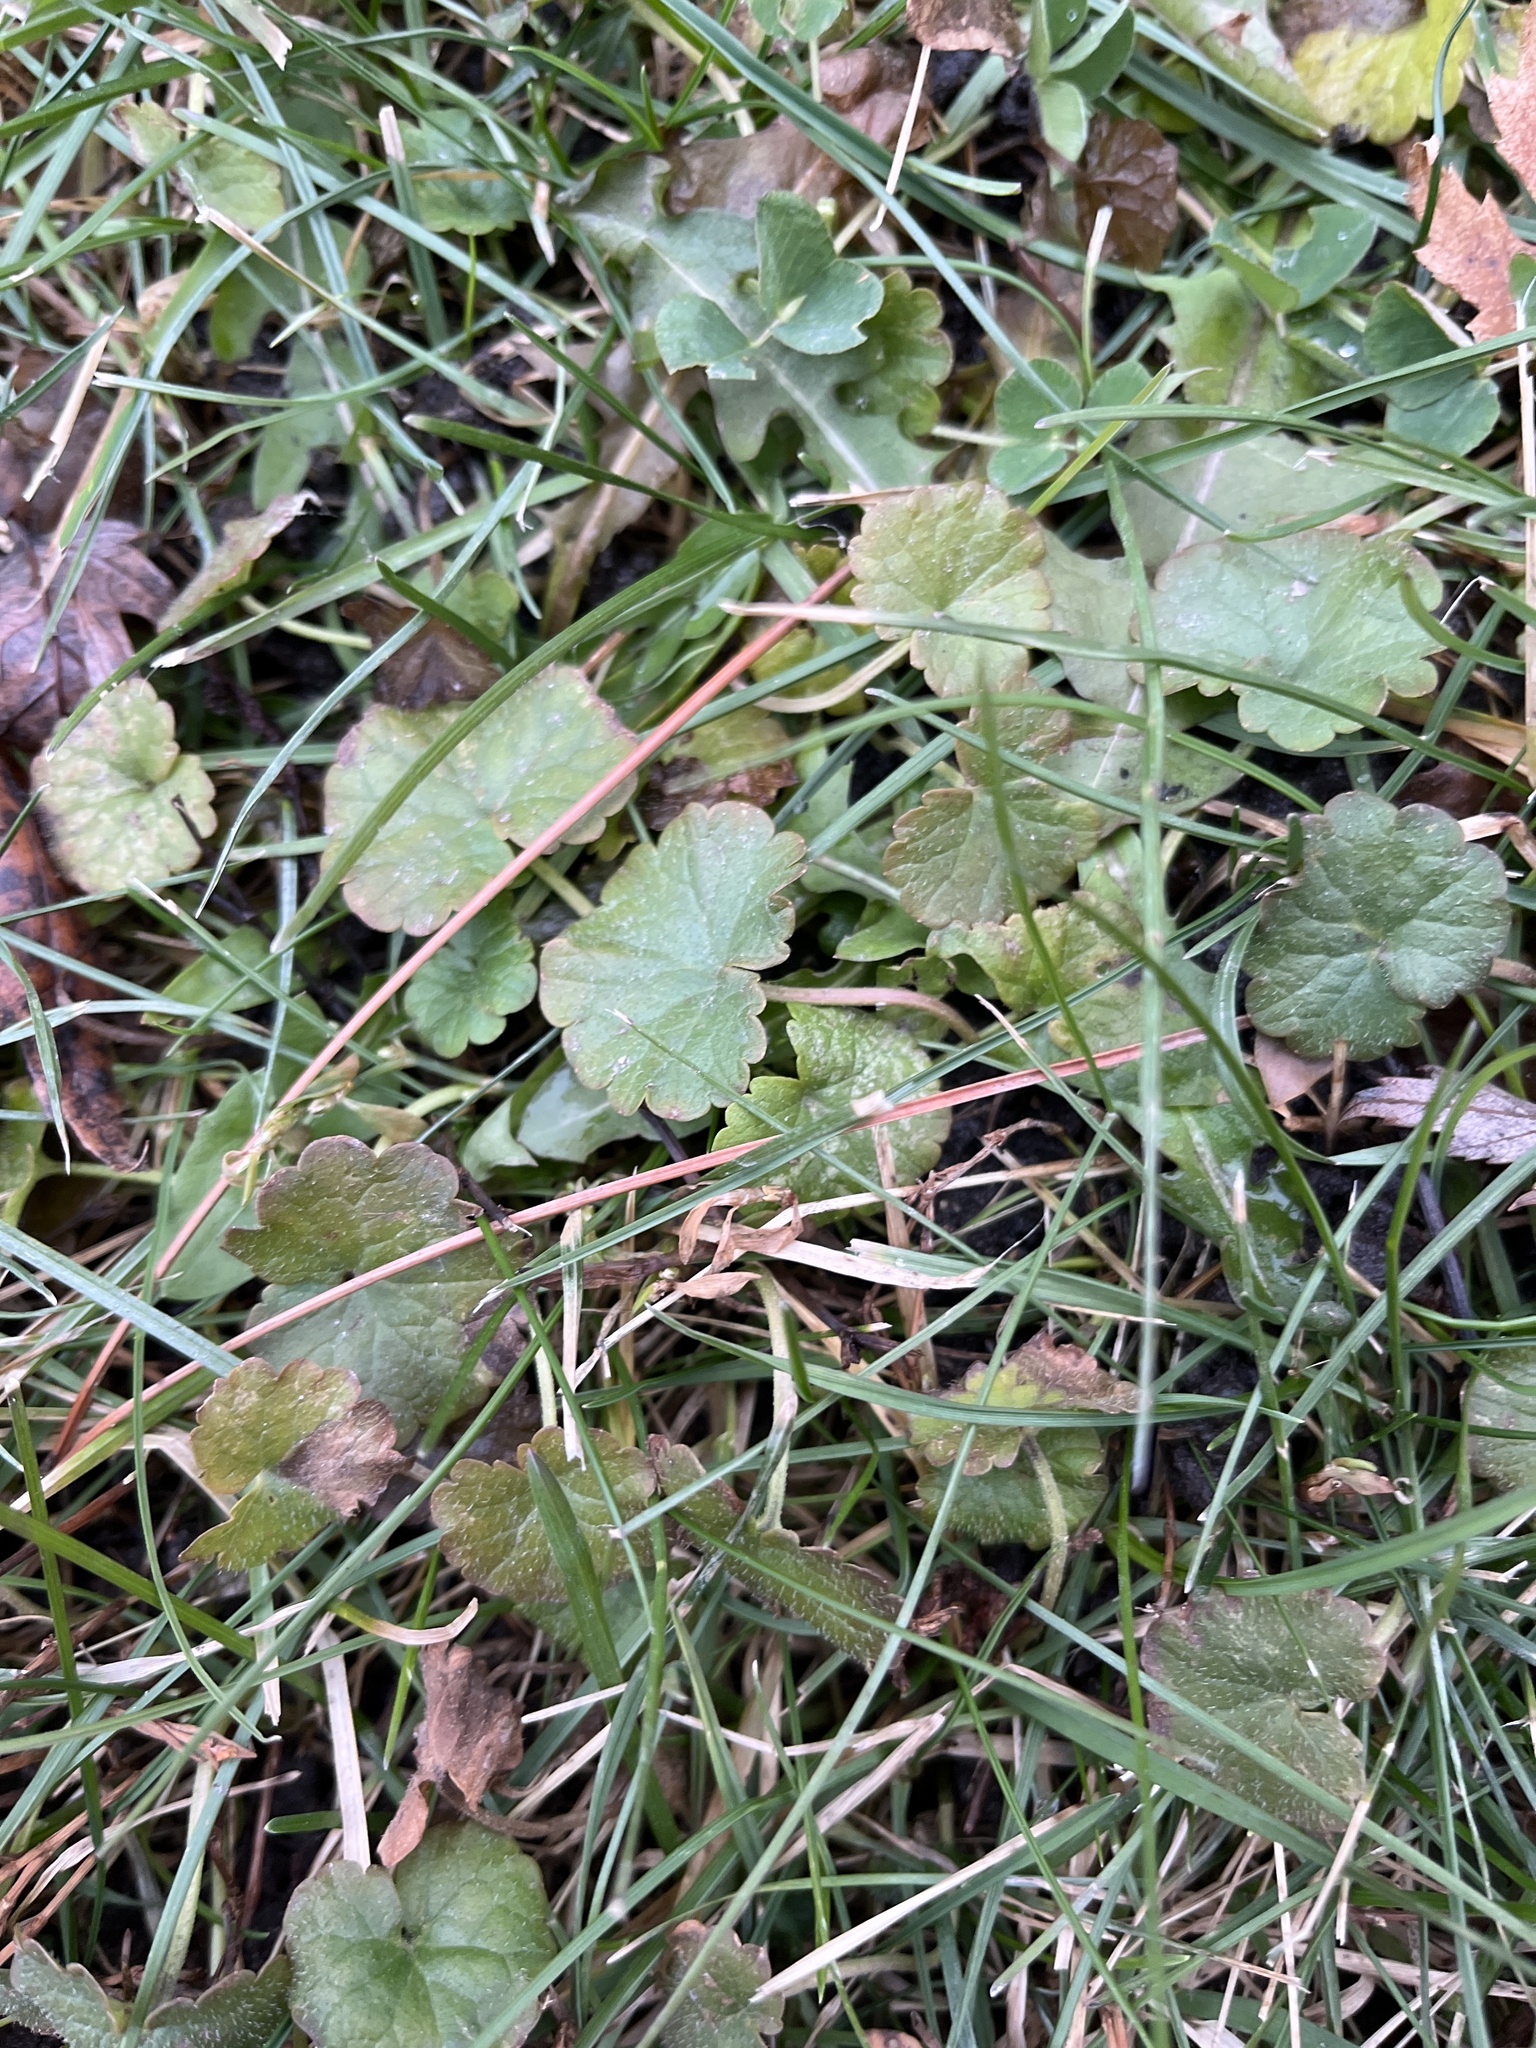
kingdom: Plantae
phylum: Tracheophyta
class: Magnoliopsida
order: Lamiales
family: Lamiaceae
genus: Glechoma
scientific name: Glechoma hederacea
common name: Ground ivy
